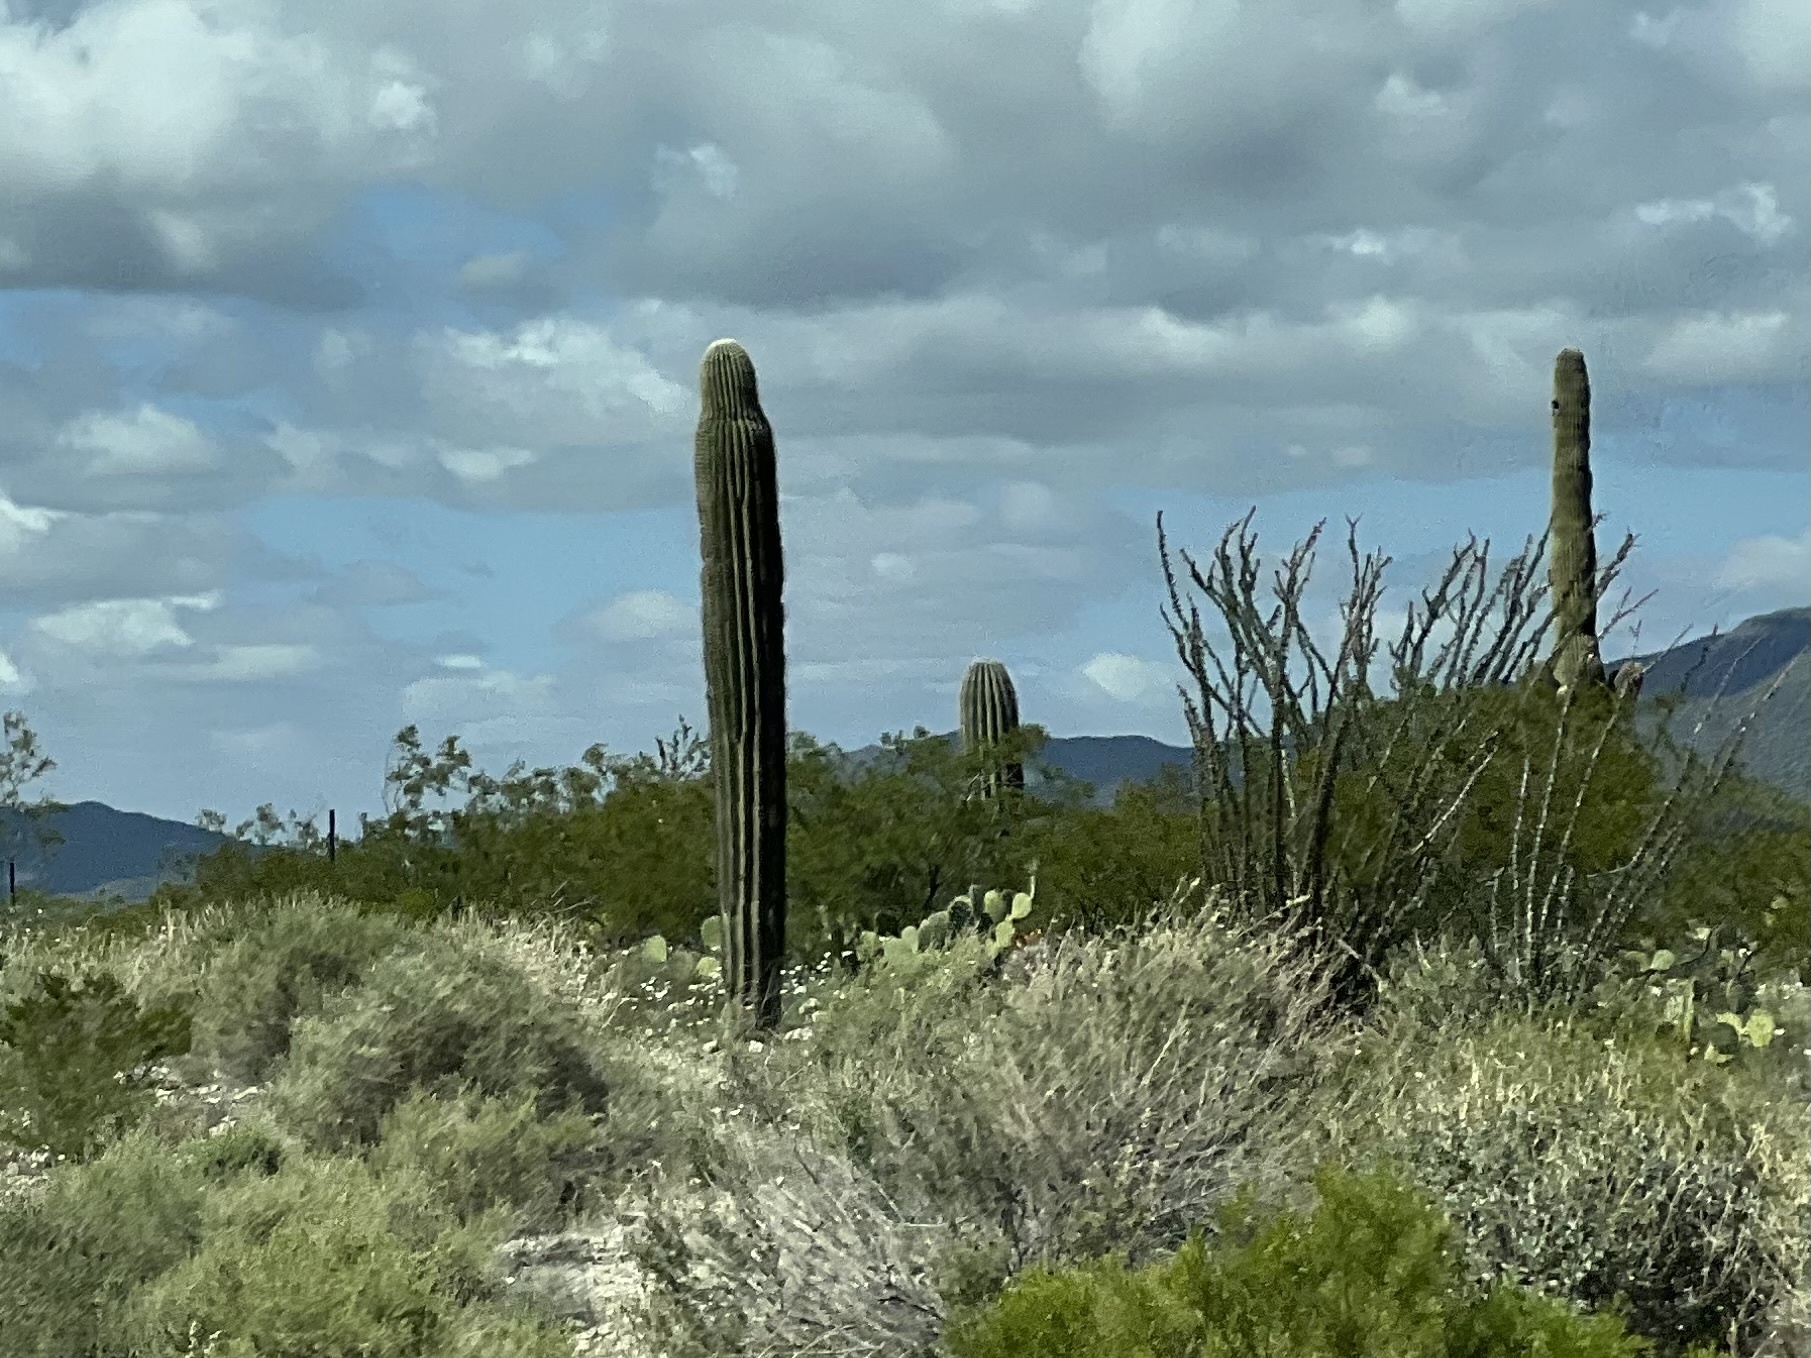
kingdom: Plantae
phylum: Tracheophyta
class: Magnoliopsida
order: Caryophyllales
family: Cactaceae
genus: Carnegiea
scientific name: Carnegiea gigantea
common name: Saguaro
